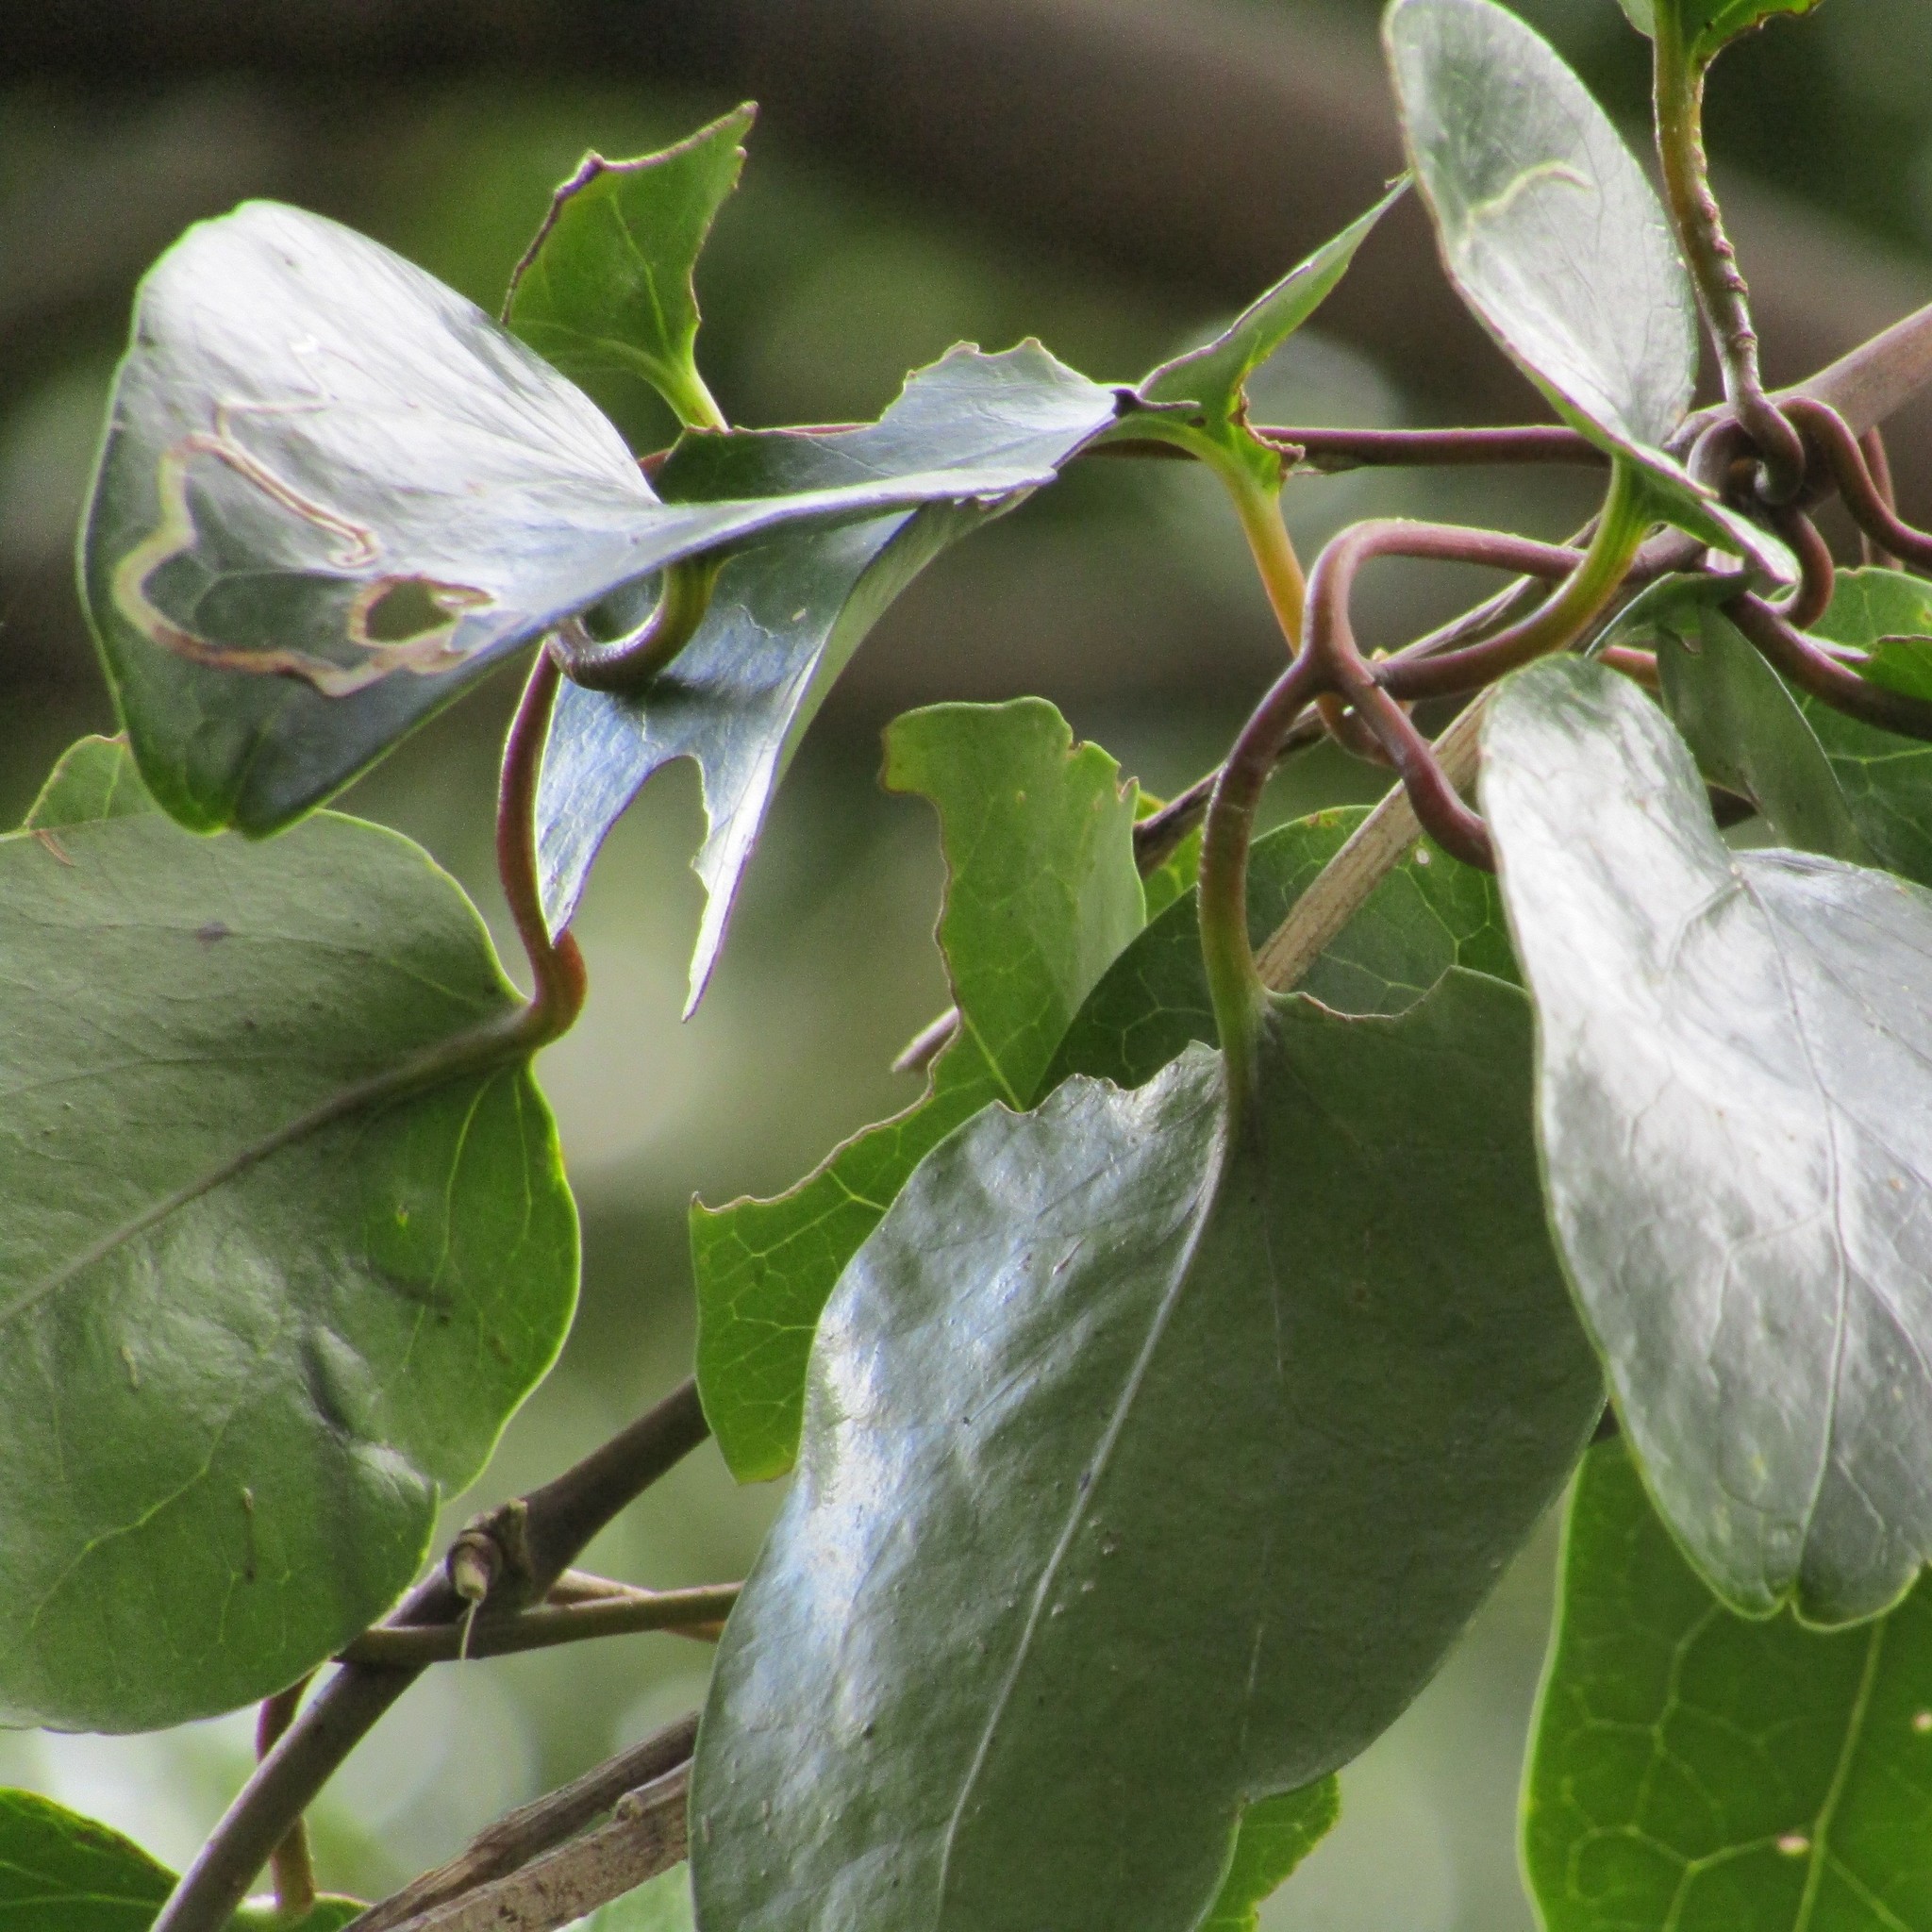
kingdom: Plantae
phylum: Tracheophyta
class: Magnoliopsida
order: Ranunculales
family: Ranunculaceae
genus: Clematis
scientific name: Clematis paniculata
